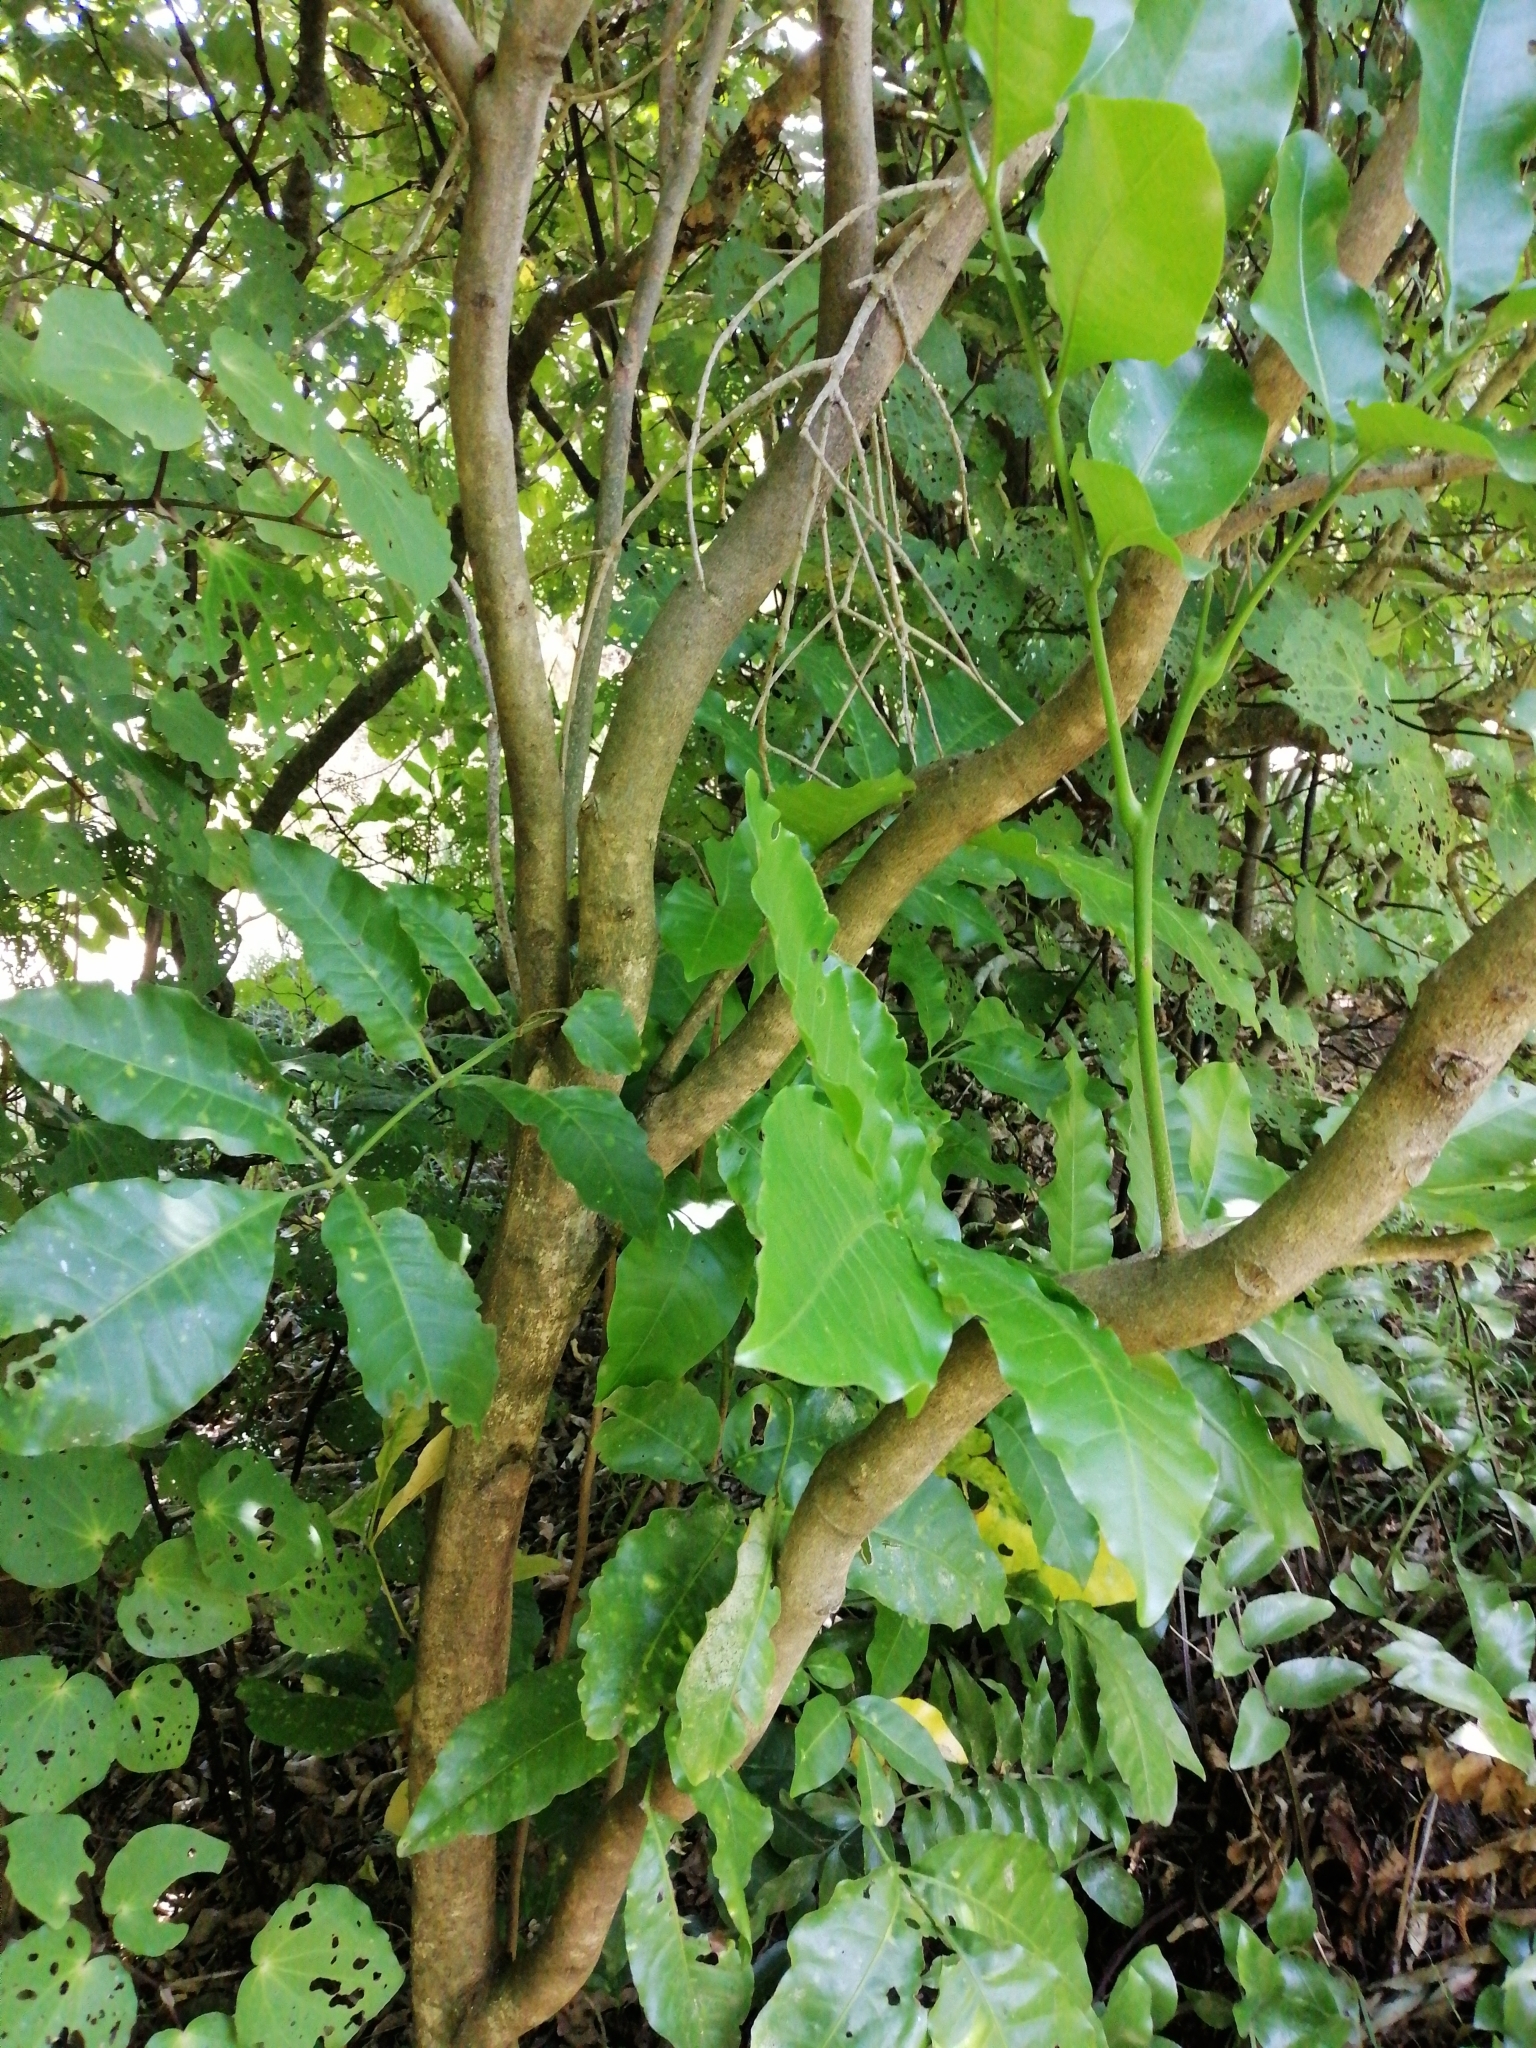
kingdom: Plantae
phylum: Tracheophyta
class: Magnoliopsida
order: Sapindales
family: Meliaceae
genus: Didymocheton
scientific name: Didymocheton spectabilis
